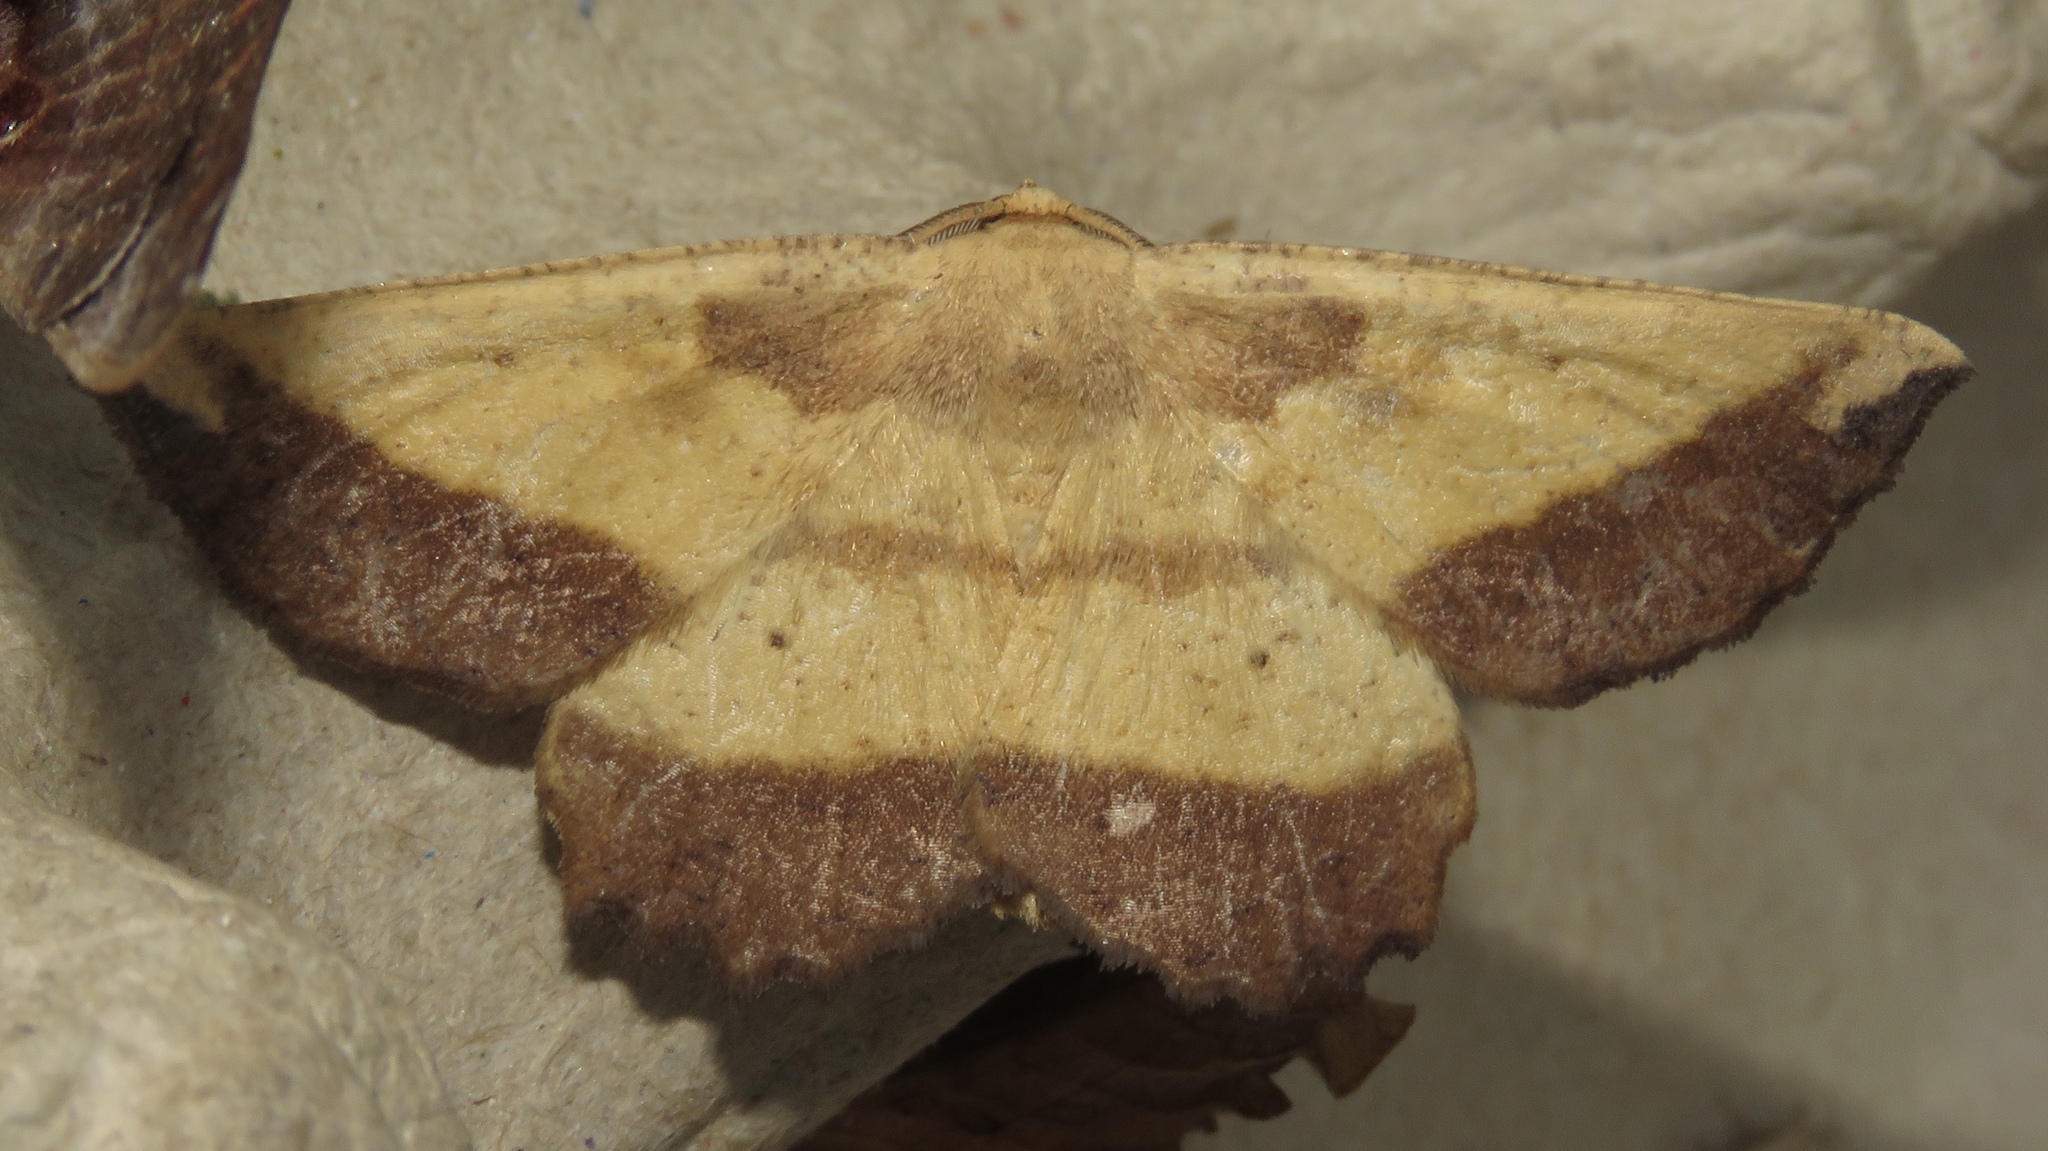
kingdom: Animalia
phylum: Arthropoda
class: Insecta
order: Lepidoptera
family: Geometridae
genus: Euchlaena
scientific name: Euchlaena serrata
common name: Saw wing
